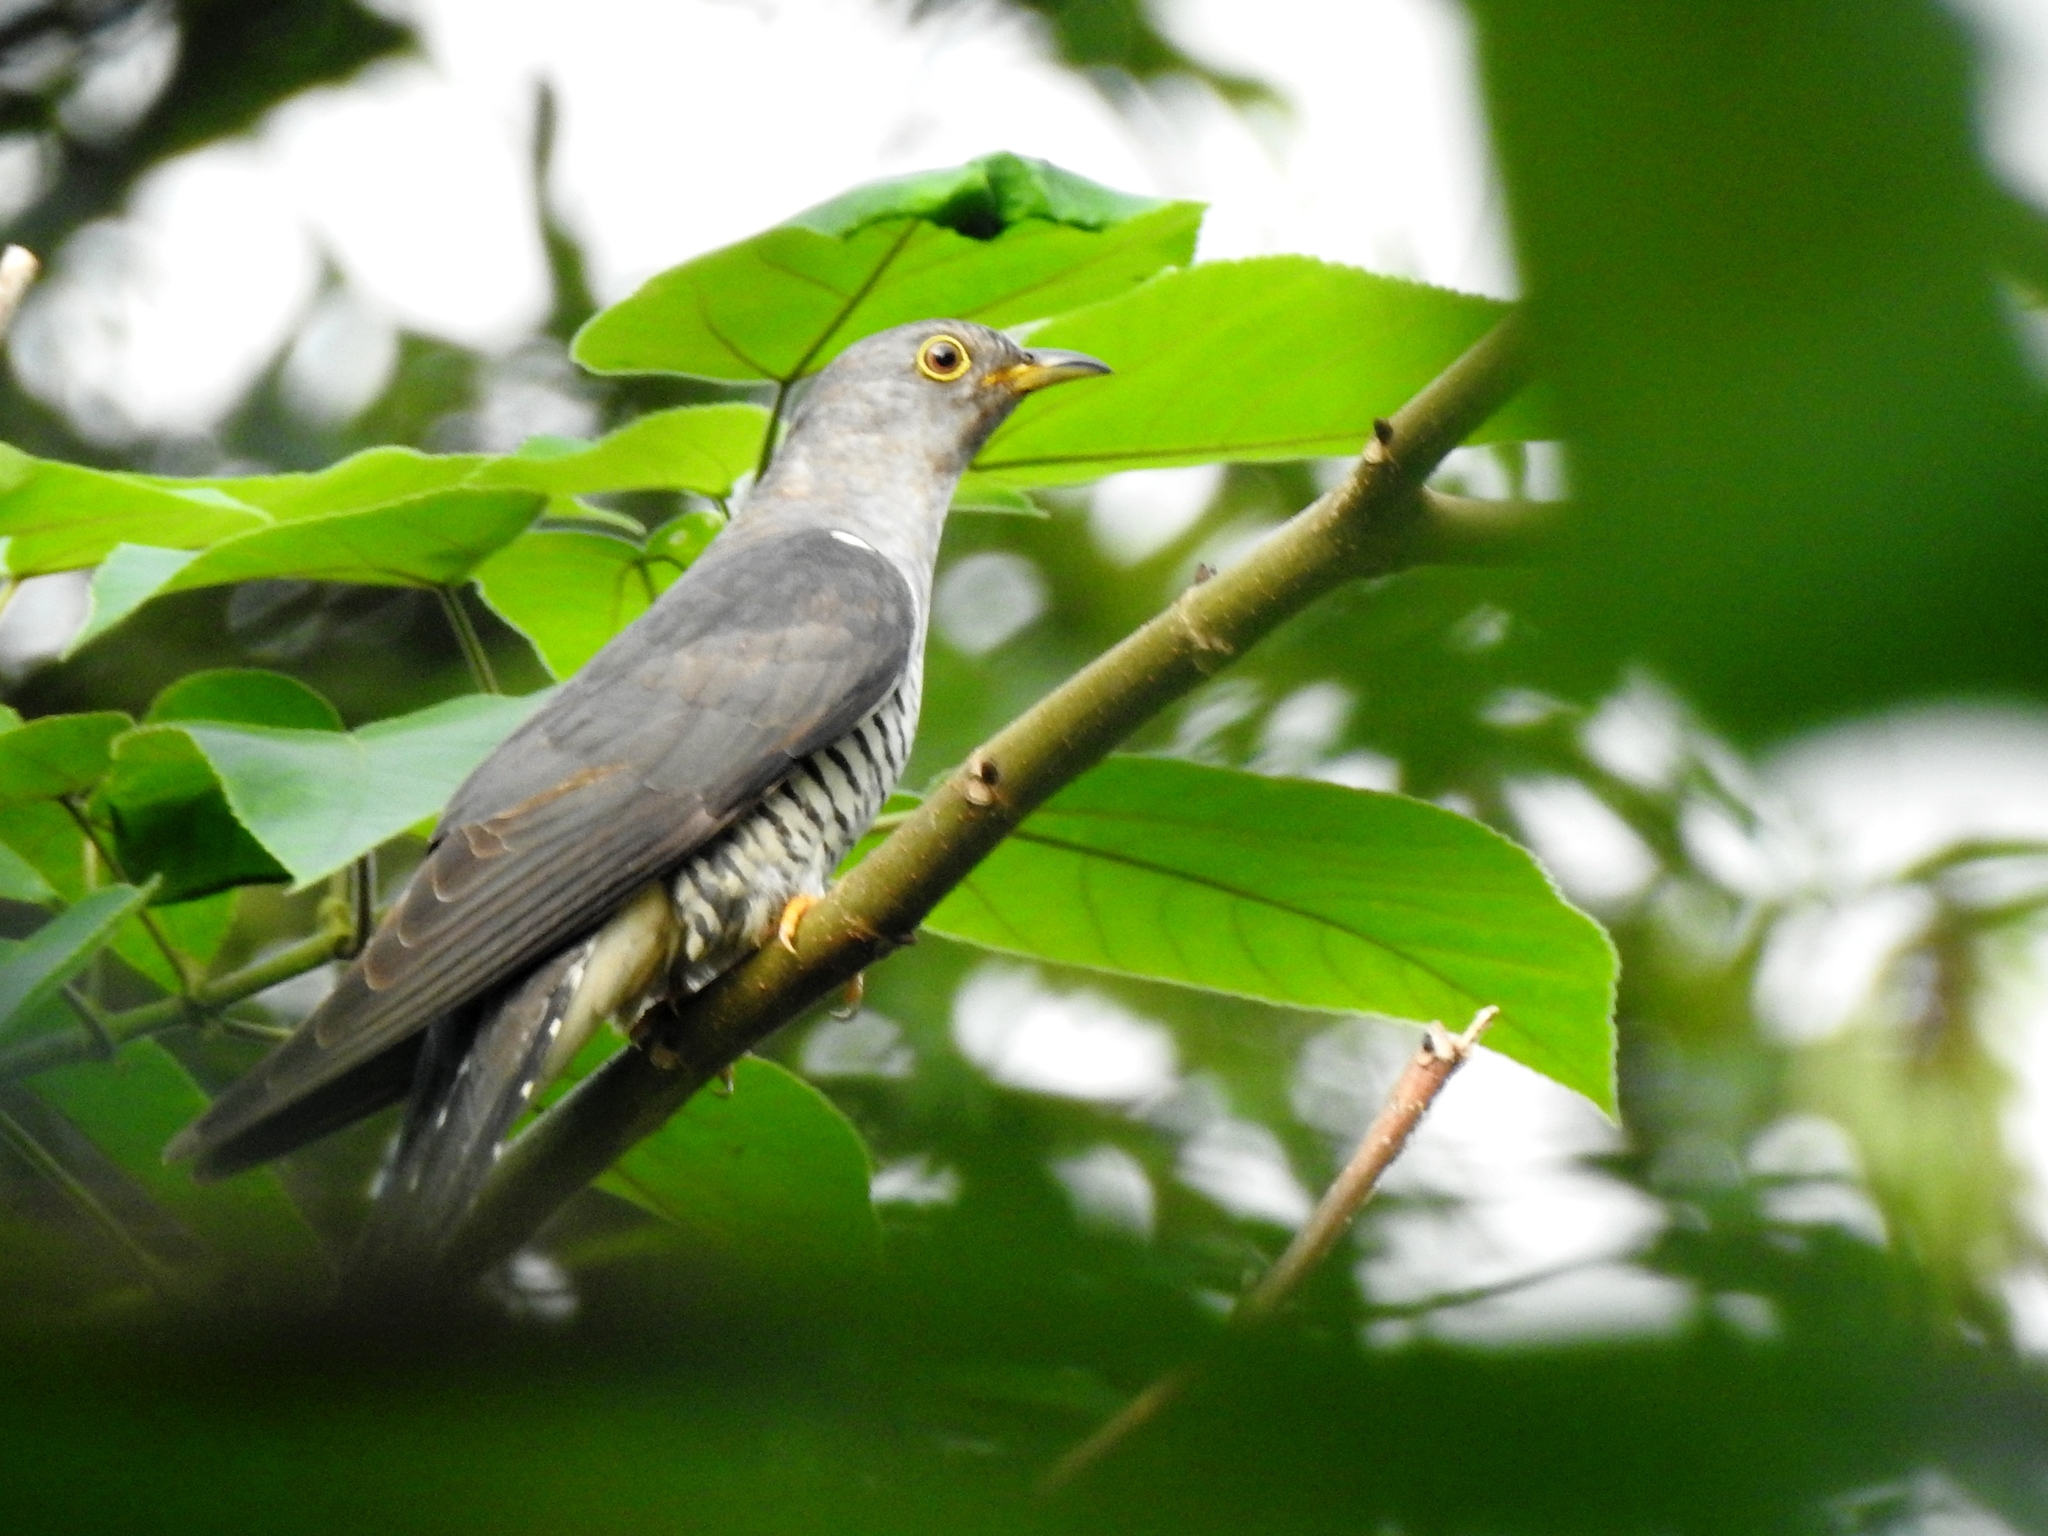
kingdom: Animalia
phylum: Chordata
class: Aves
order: Cuculiformes
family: Cuculidae
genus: Cuculus
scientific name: Cuculus saturatus
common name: Himalayan cuckoo
